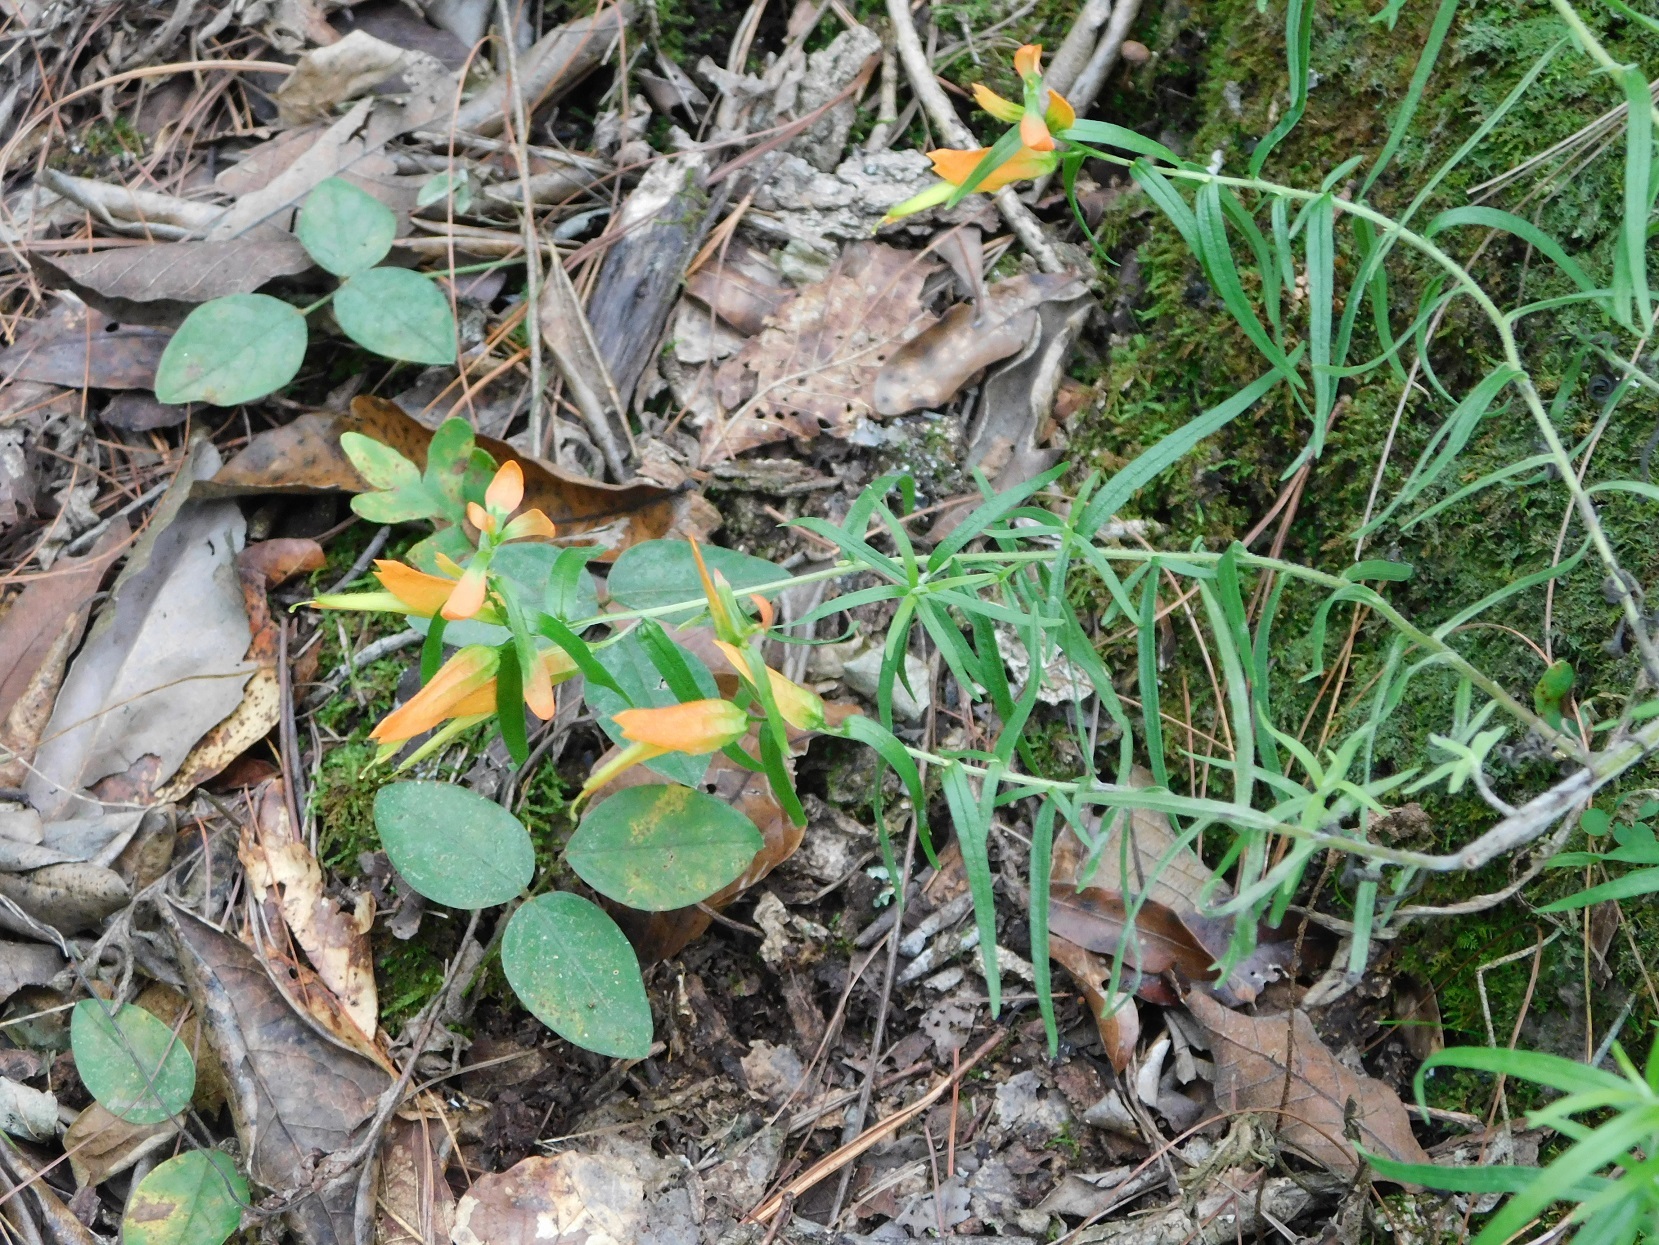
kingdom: Plantae
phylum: Tracheophyta
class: Magnoliopsida
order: Lamiales
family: Orobanchaceae
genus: Castilleja
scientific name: Castilleja integrifolia
